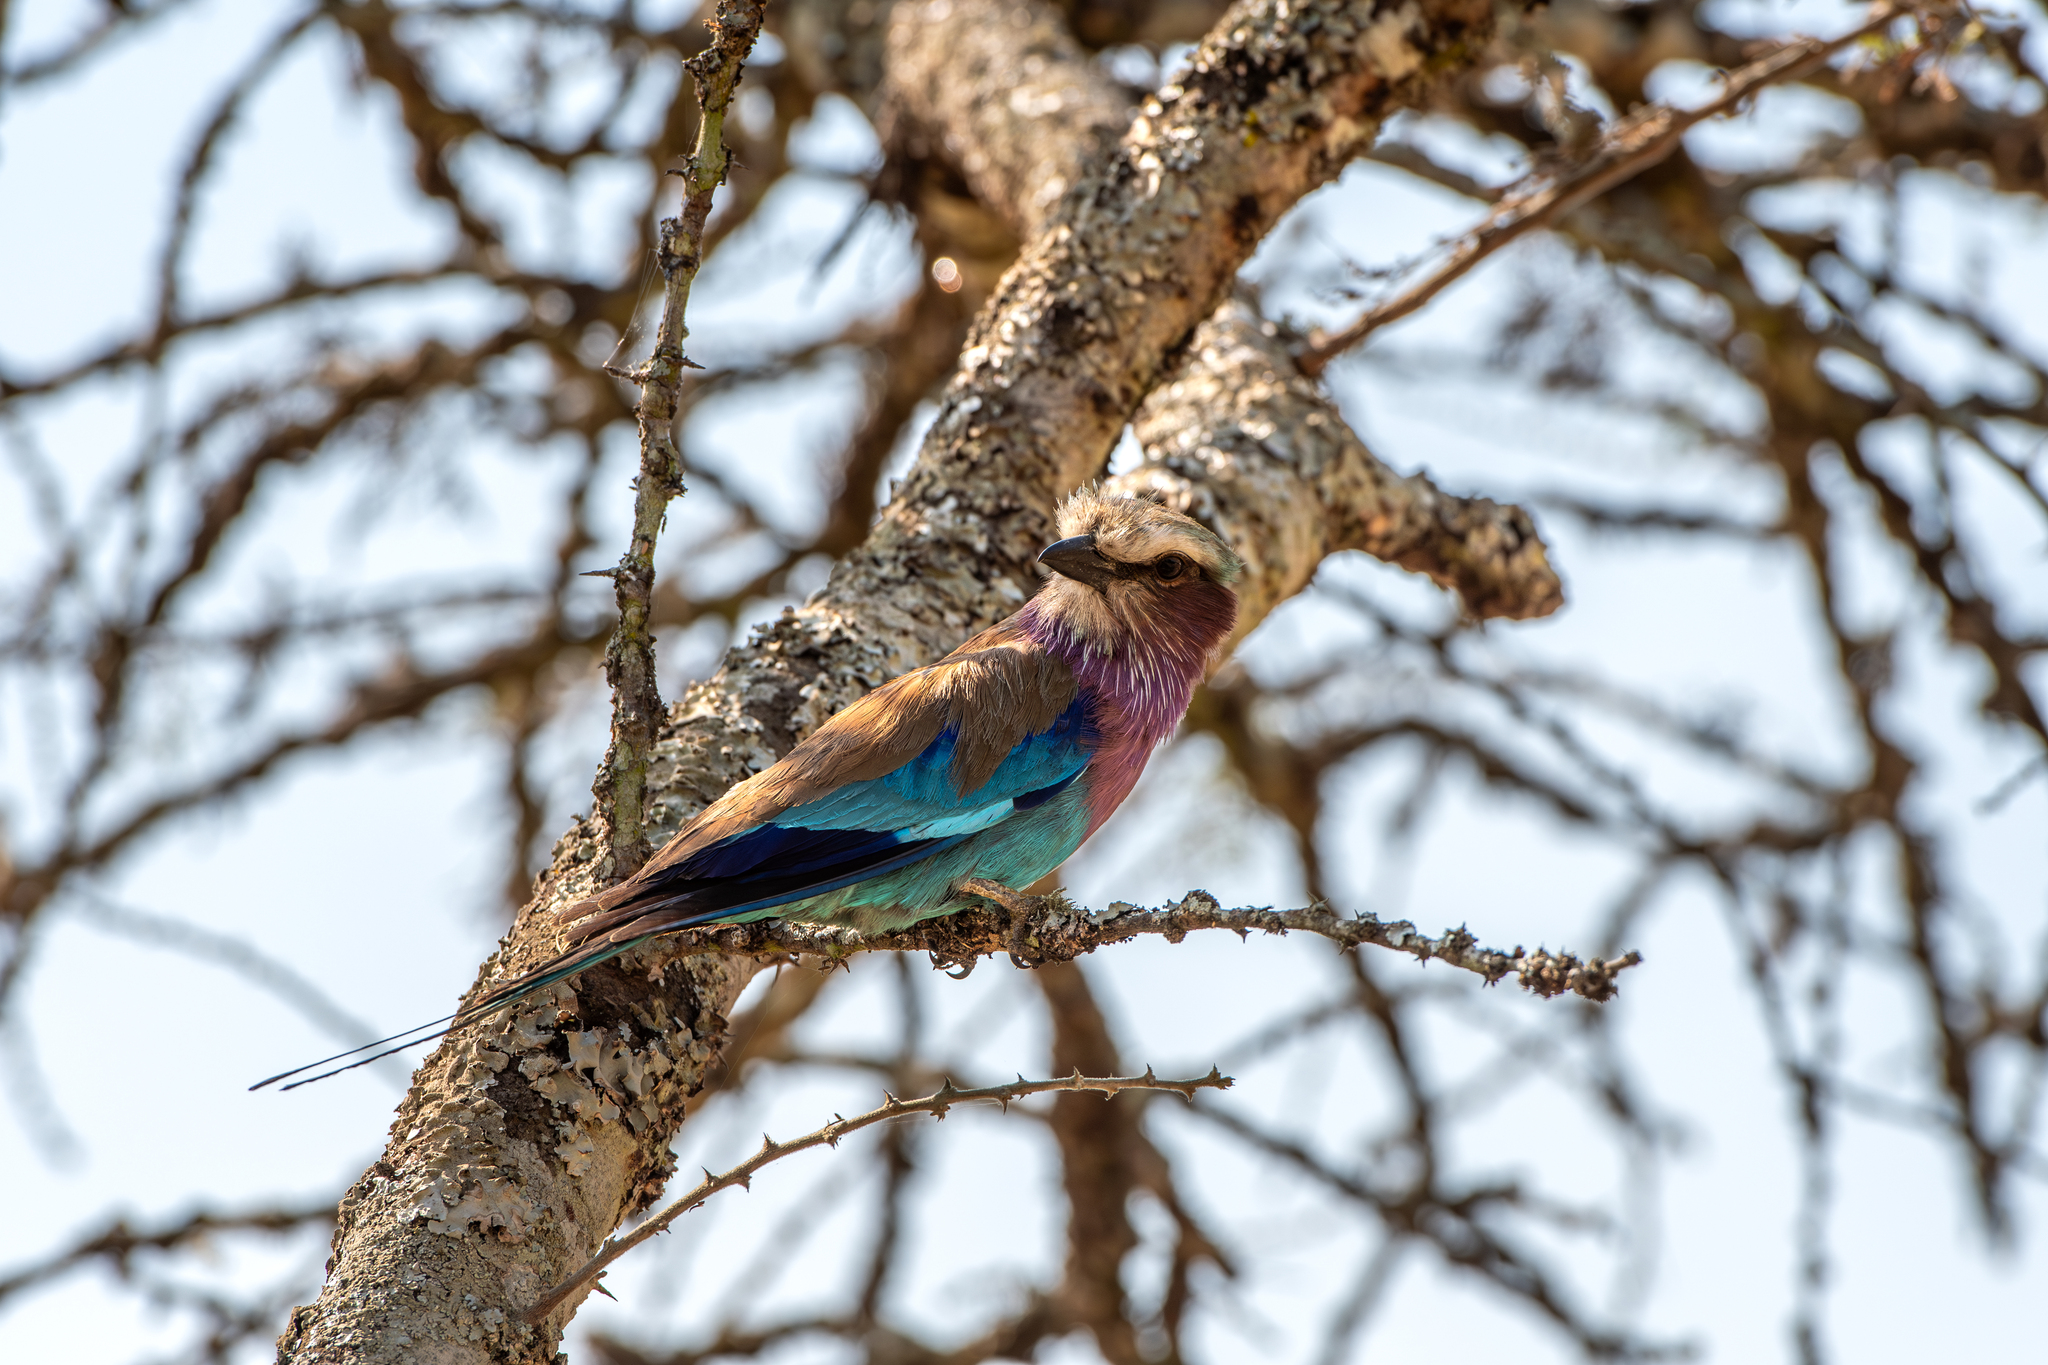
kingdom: Animalia
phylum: Chordata
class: Aves
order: Coraciiformes
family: Coraciidae
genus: Coracias
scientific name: Coracias caudatus
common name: Lilac-breasted roller
